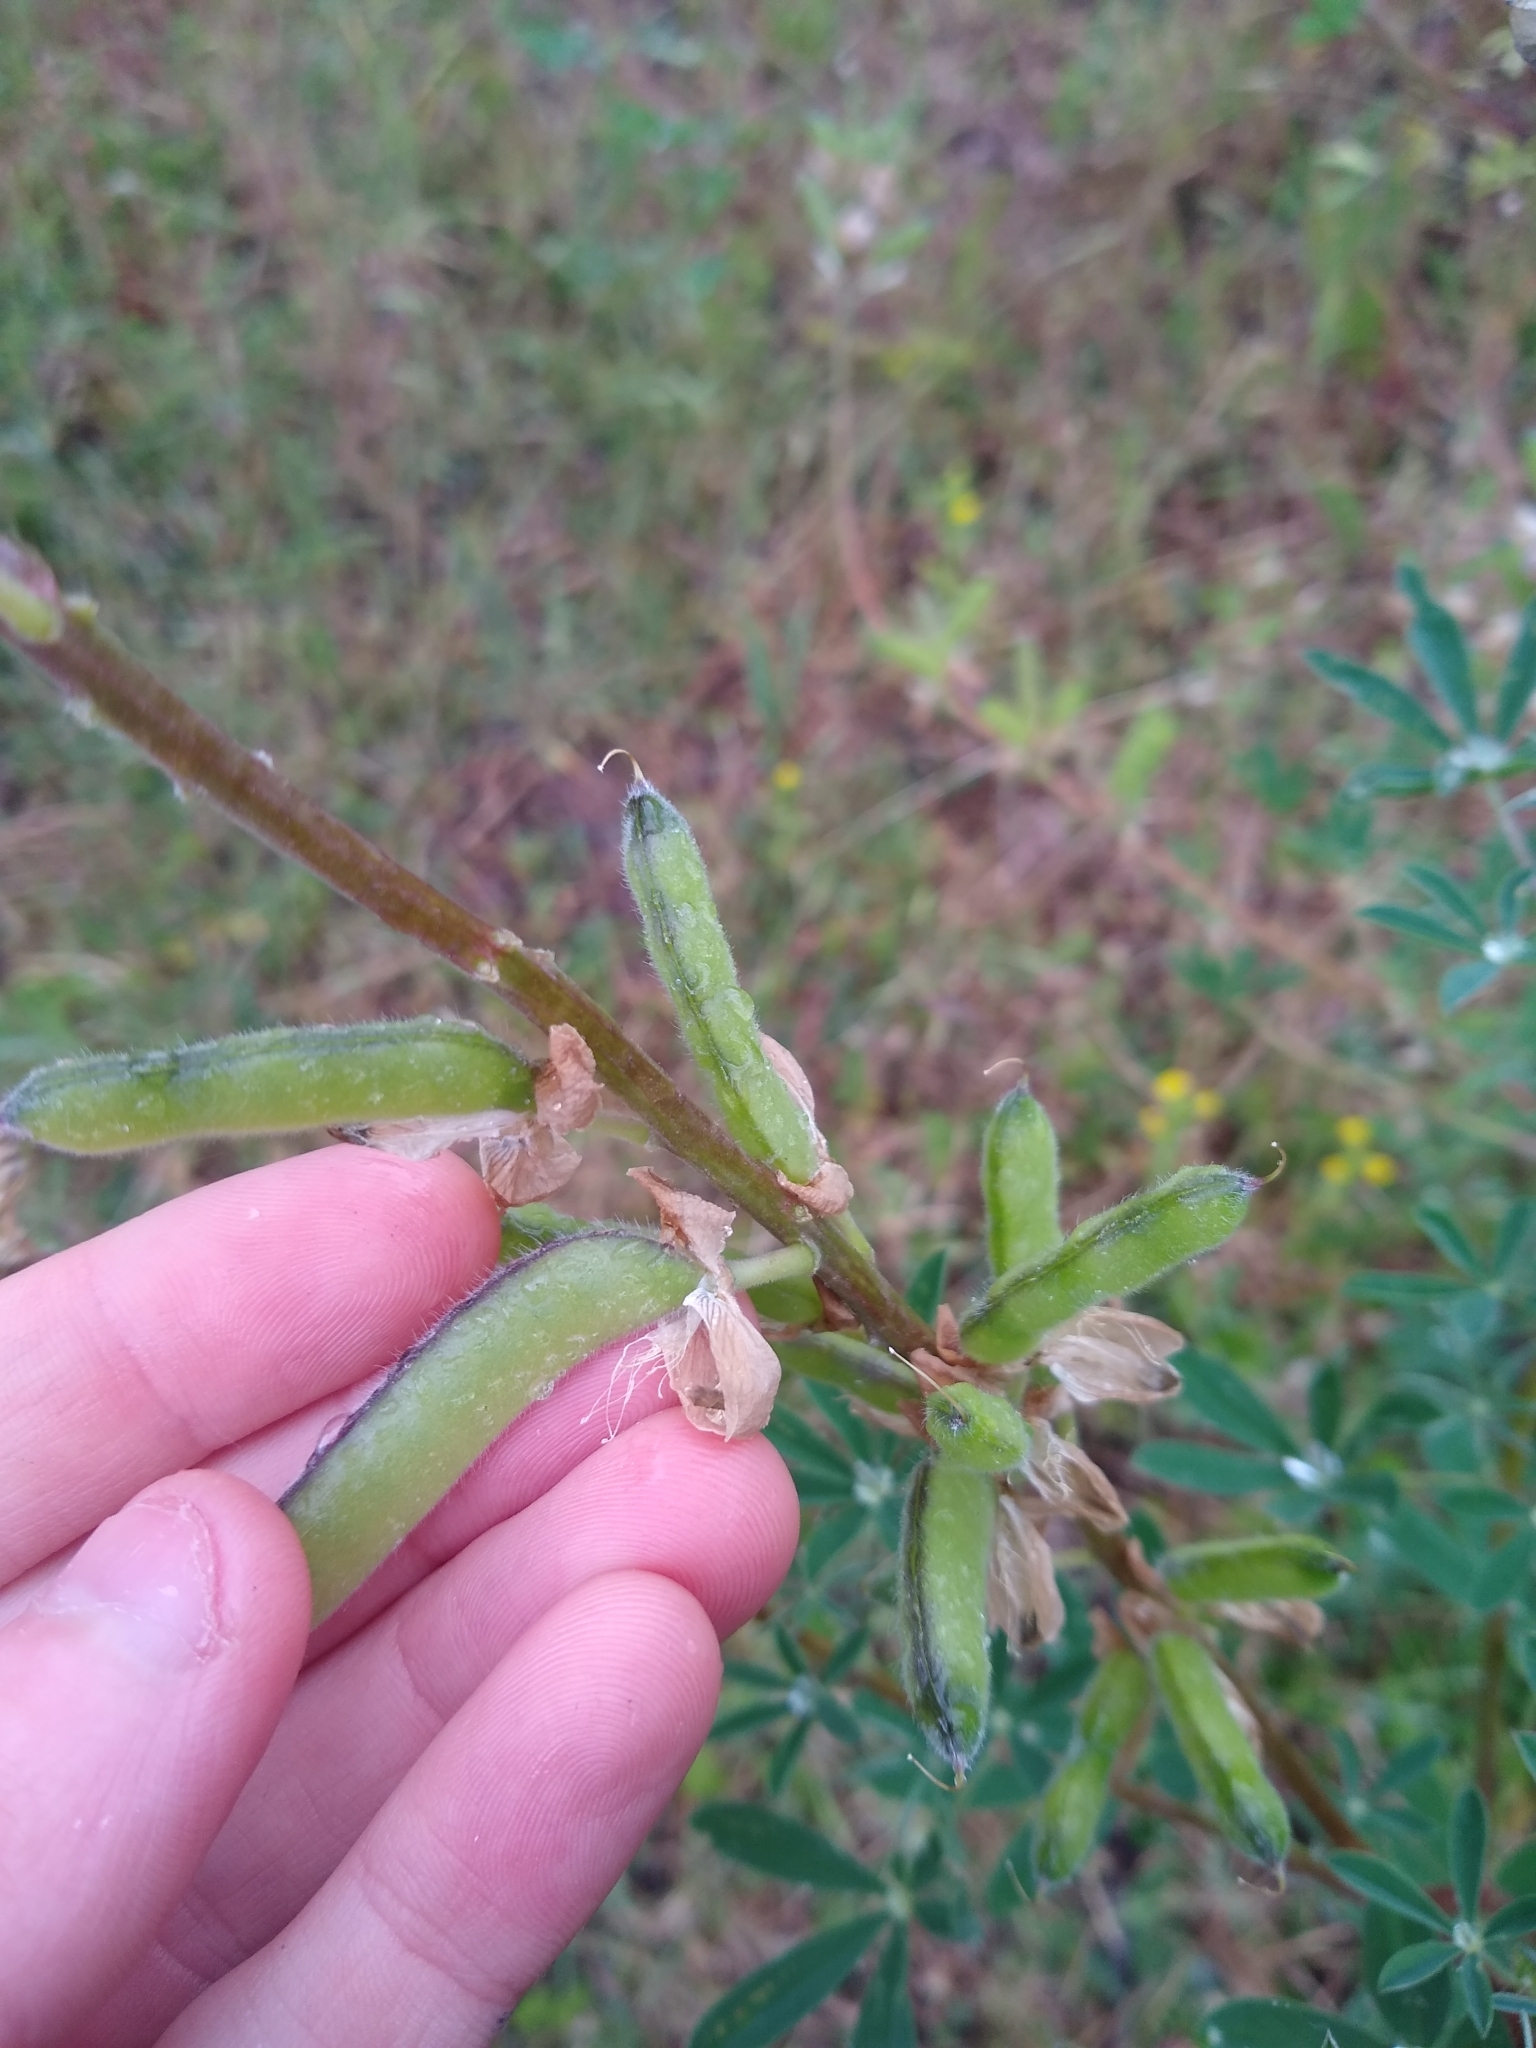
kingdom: Plantae
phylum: Tracheophyta
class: Magnoliopsida
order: Fabales
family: Fabaceae
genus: Lupinus
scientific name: Lupinus
